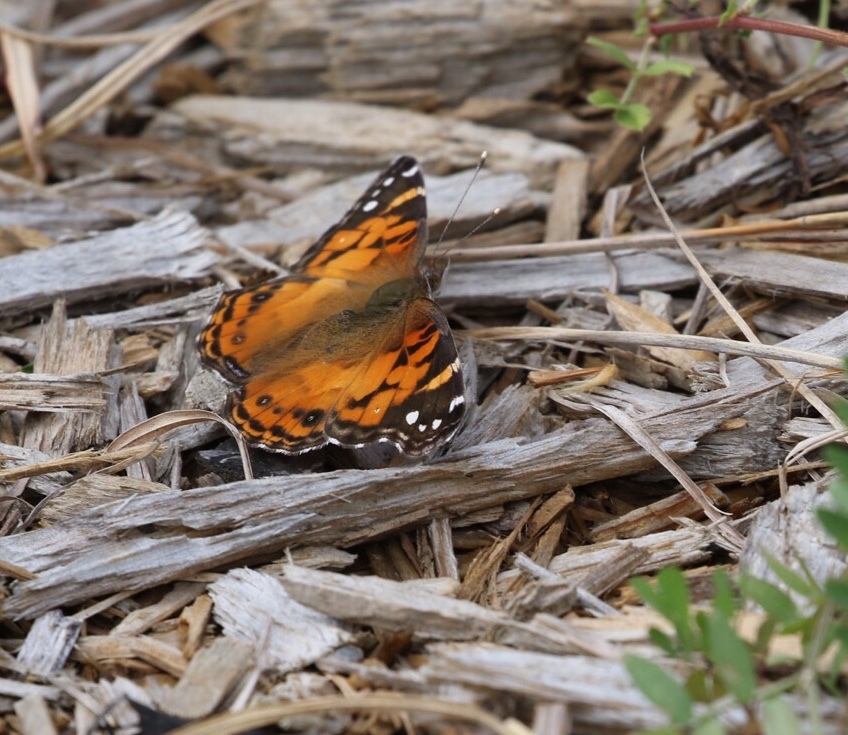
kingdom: Animalia
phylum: Arthropoda
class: Insecta
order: Lepidoptera
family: Nymphalidae
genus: Vanessa
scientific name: Vanessa virginiensis
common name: American lady
